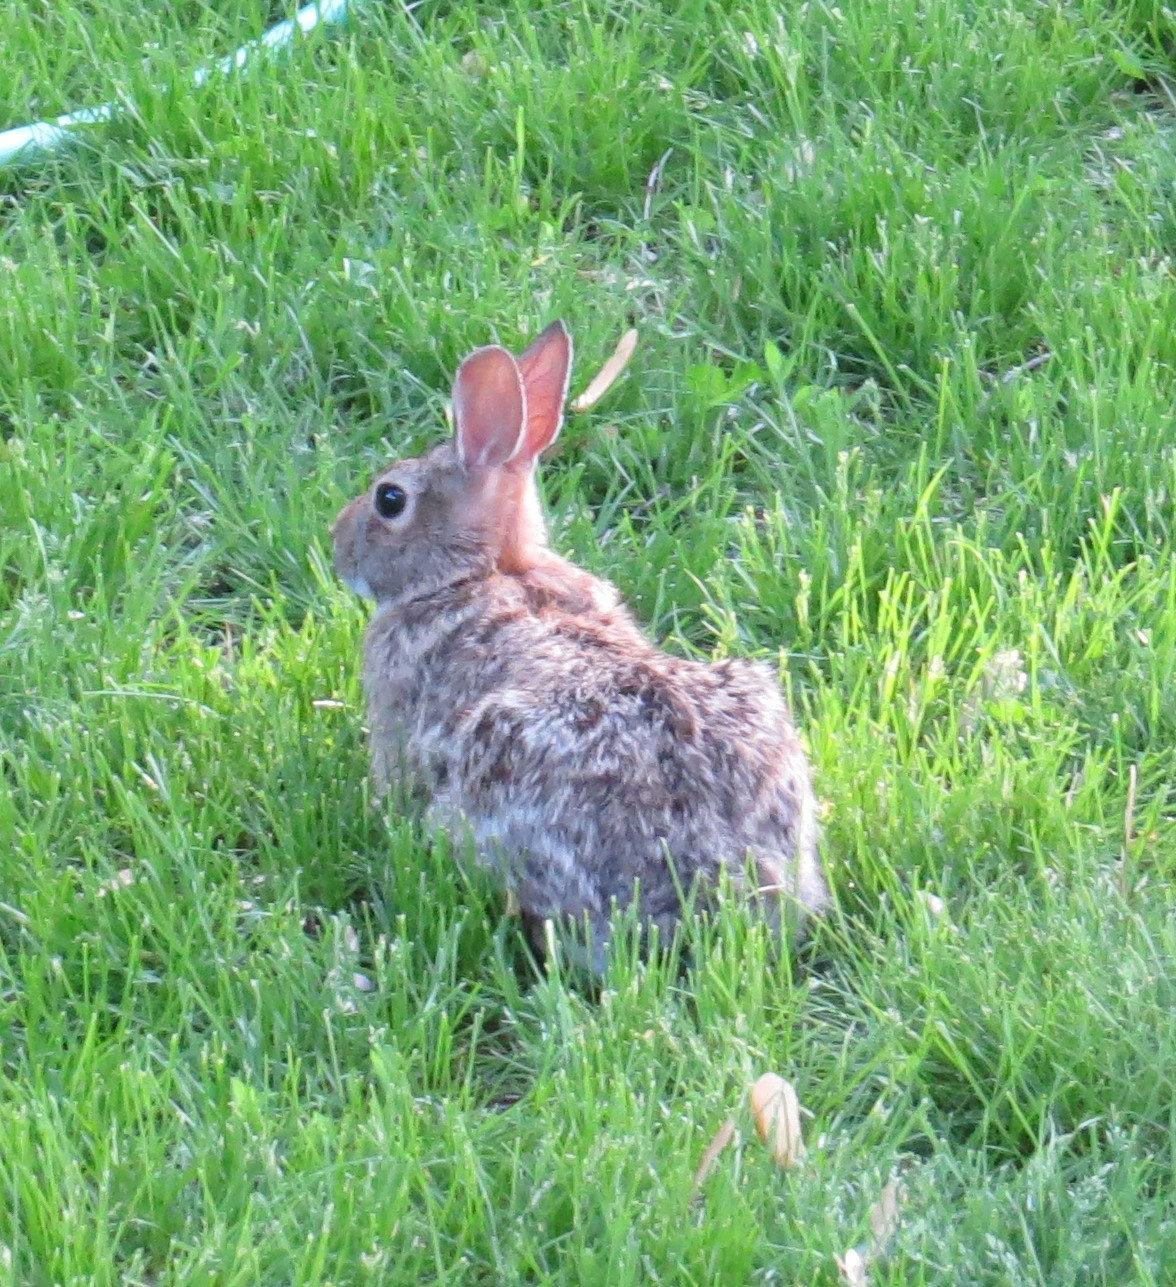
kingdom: Animalia
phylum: Chordata
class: Mammalia
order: Lagomorpha
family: Leporidae
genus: Sylvilagus
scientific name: Sylvilagus floridanus
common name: Eastern cottontail
